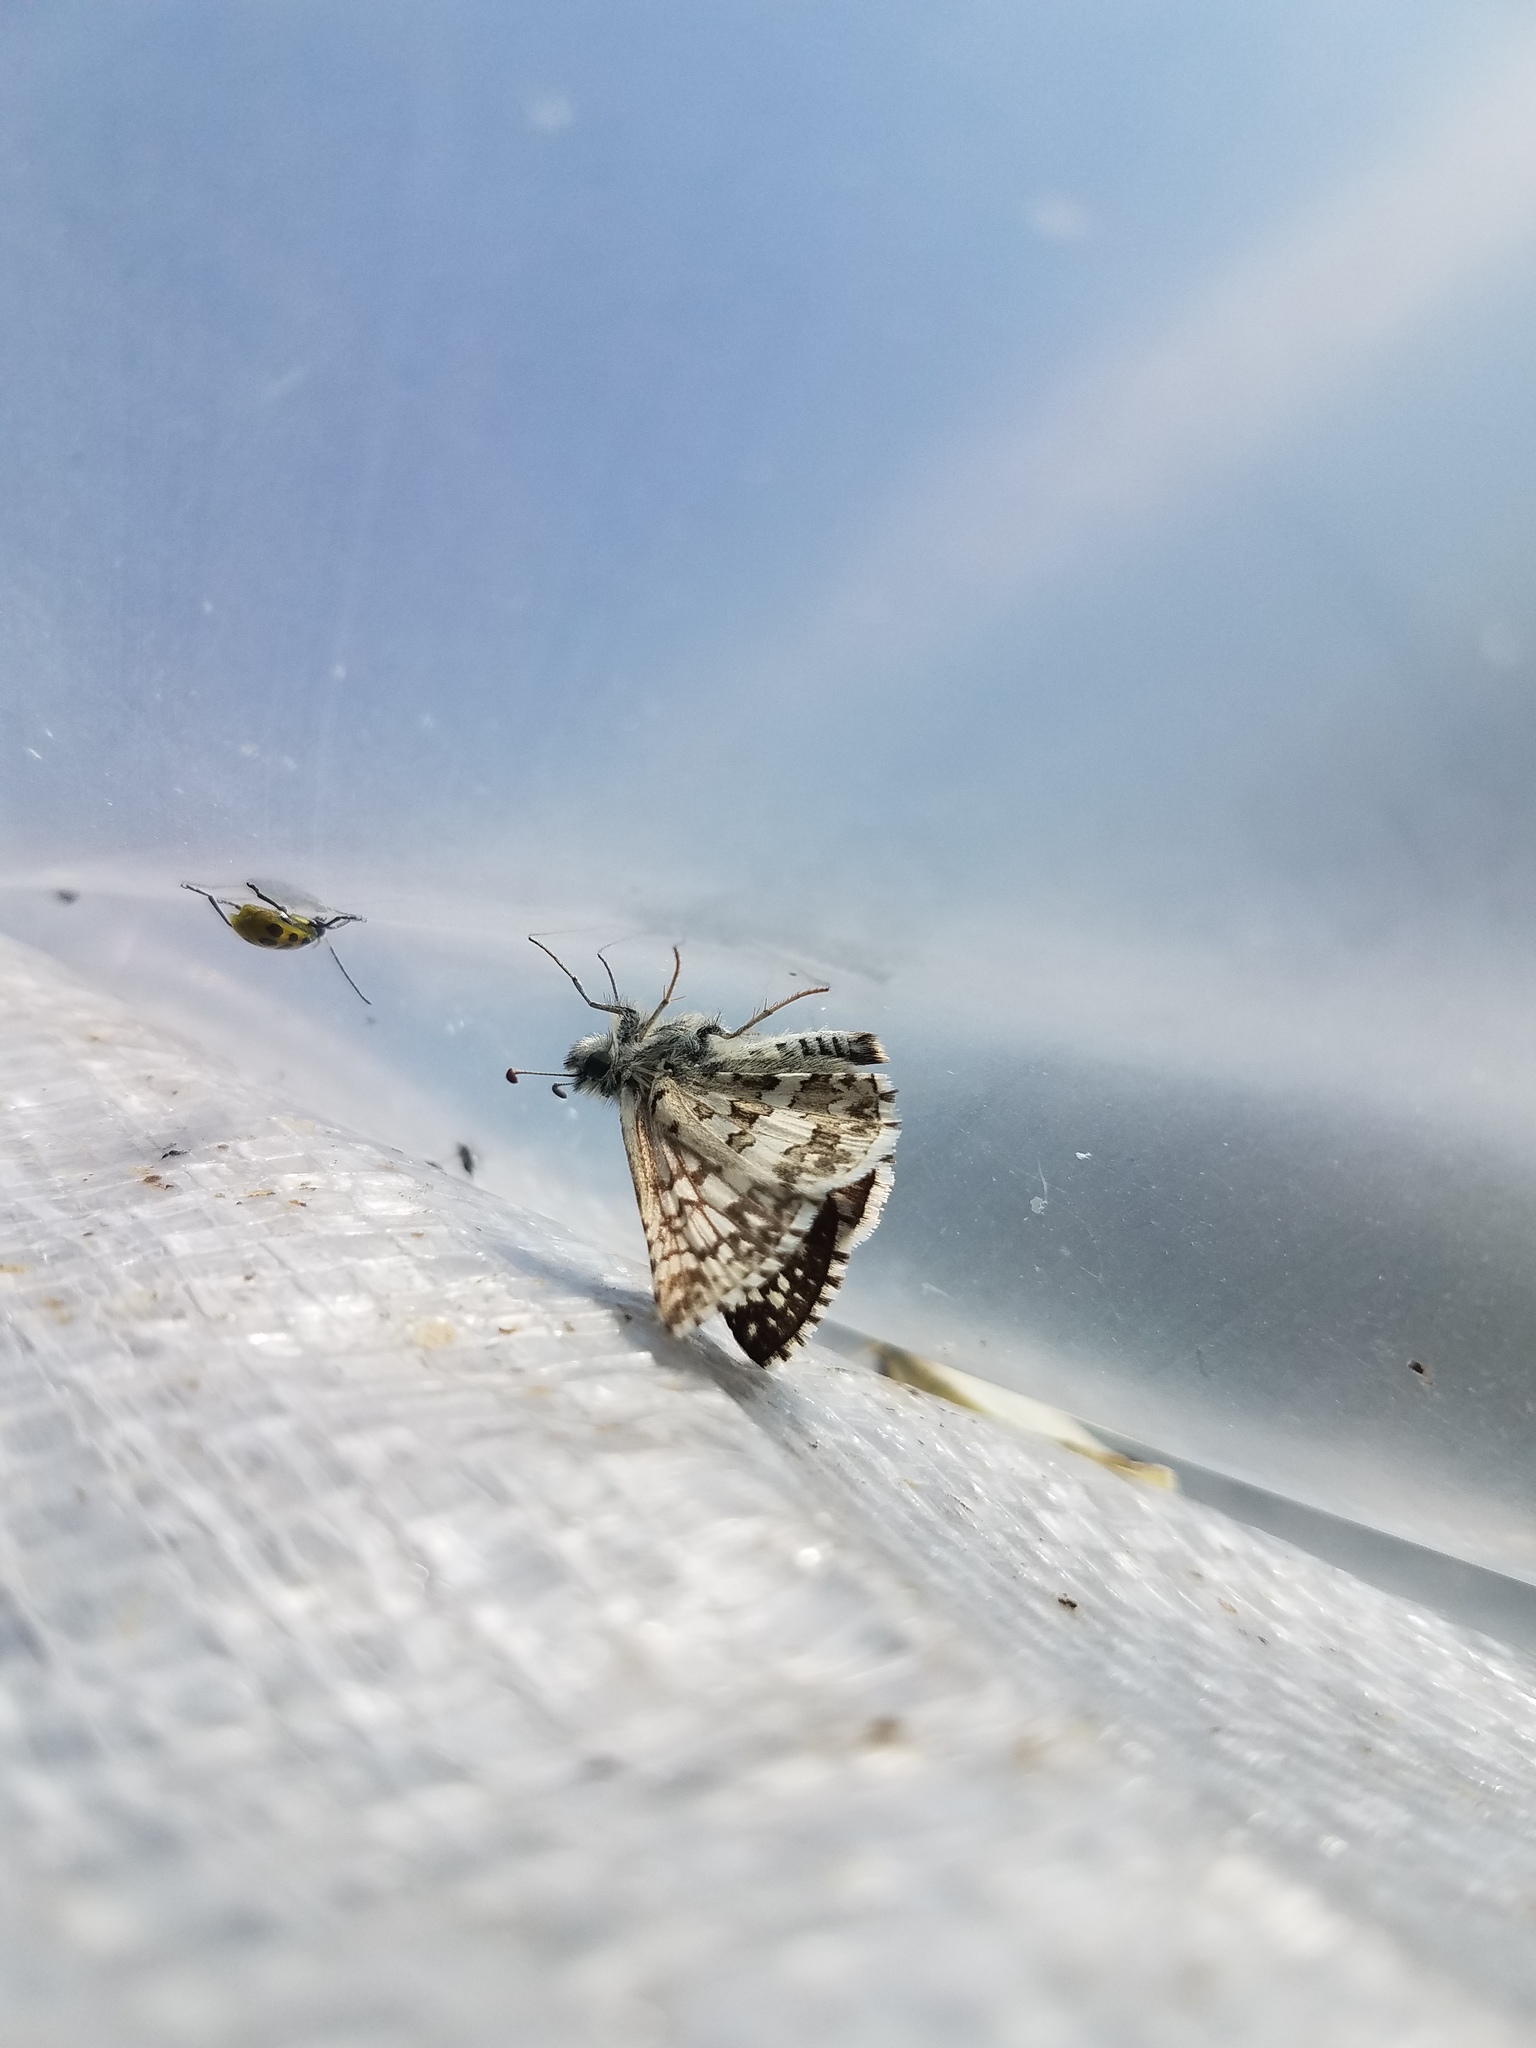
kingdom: Animalia
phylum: Arthropoda
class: Insecta
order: Lepidoptera
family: Hesperiidae
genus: Burnsius
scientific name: Burnsius communis
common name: Common checkered-skipper
